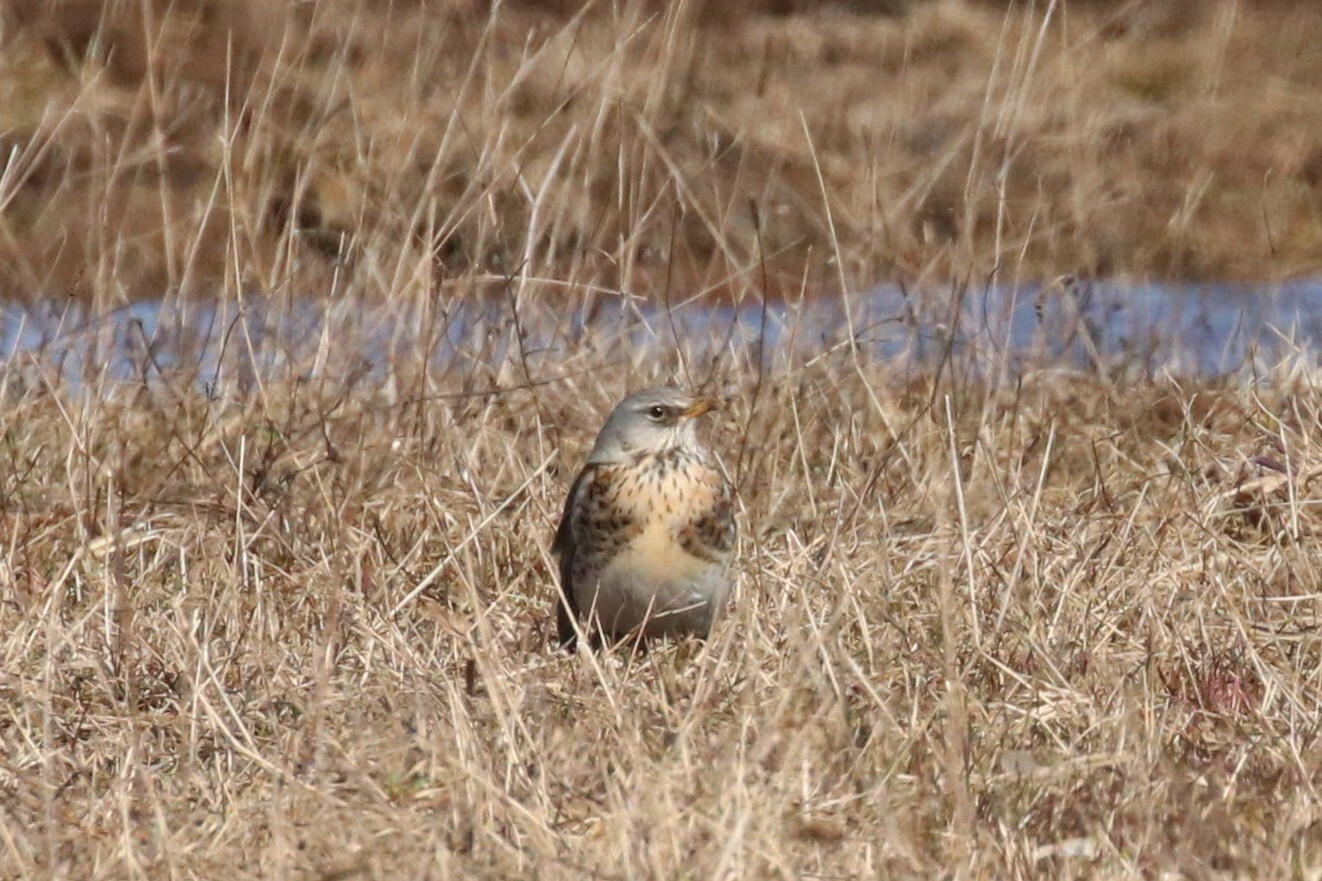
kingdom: Animalia
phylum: Chordata
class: Aves
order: Passeriformes
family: Turdidae
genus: Turdus
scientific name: Turdus pilaris
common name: Fieldfare
